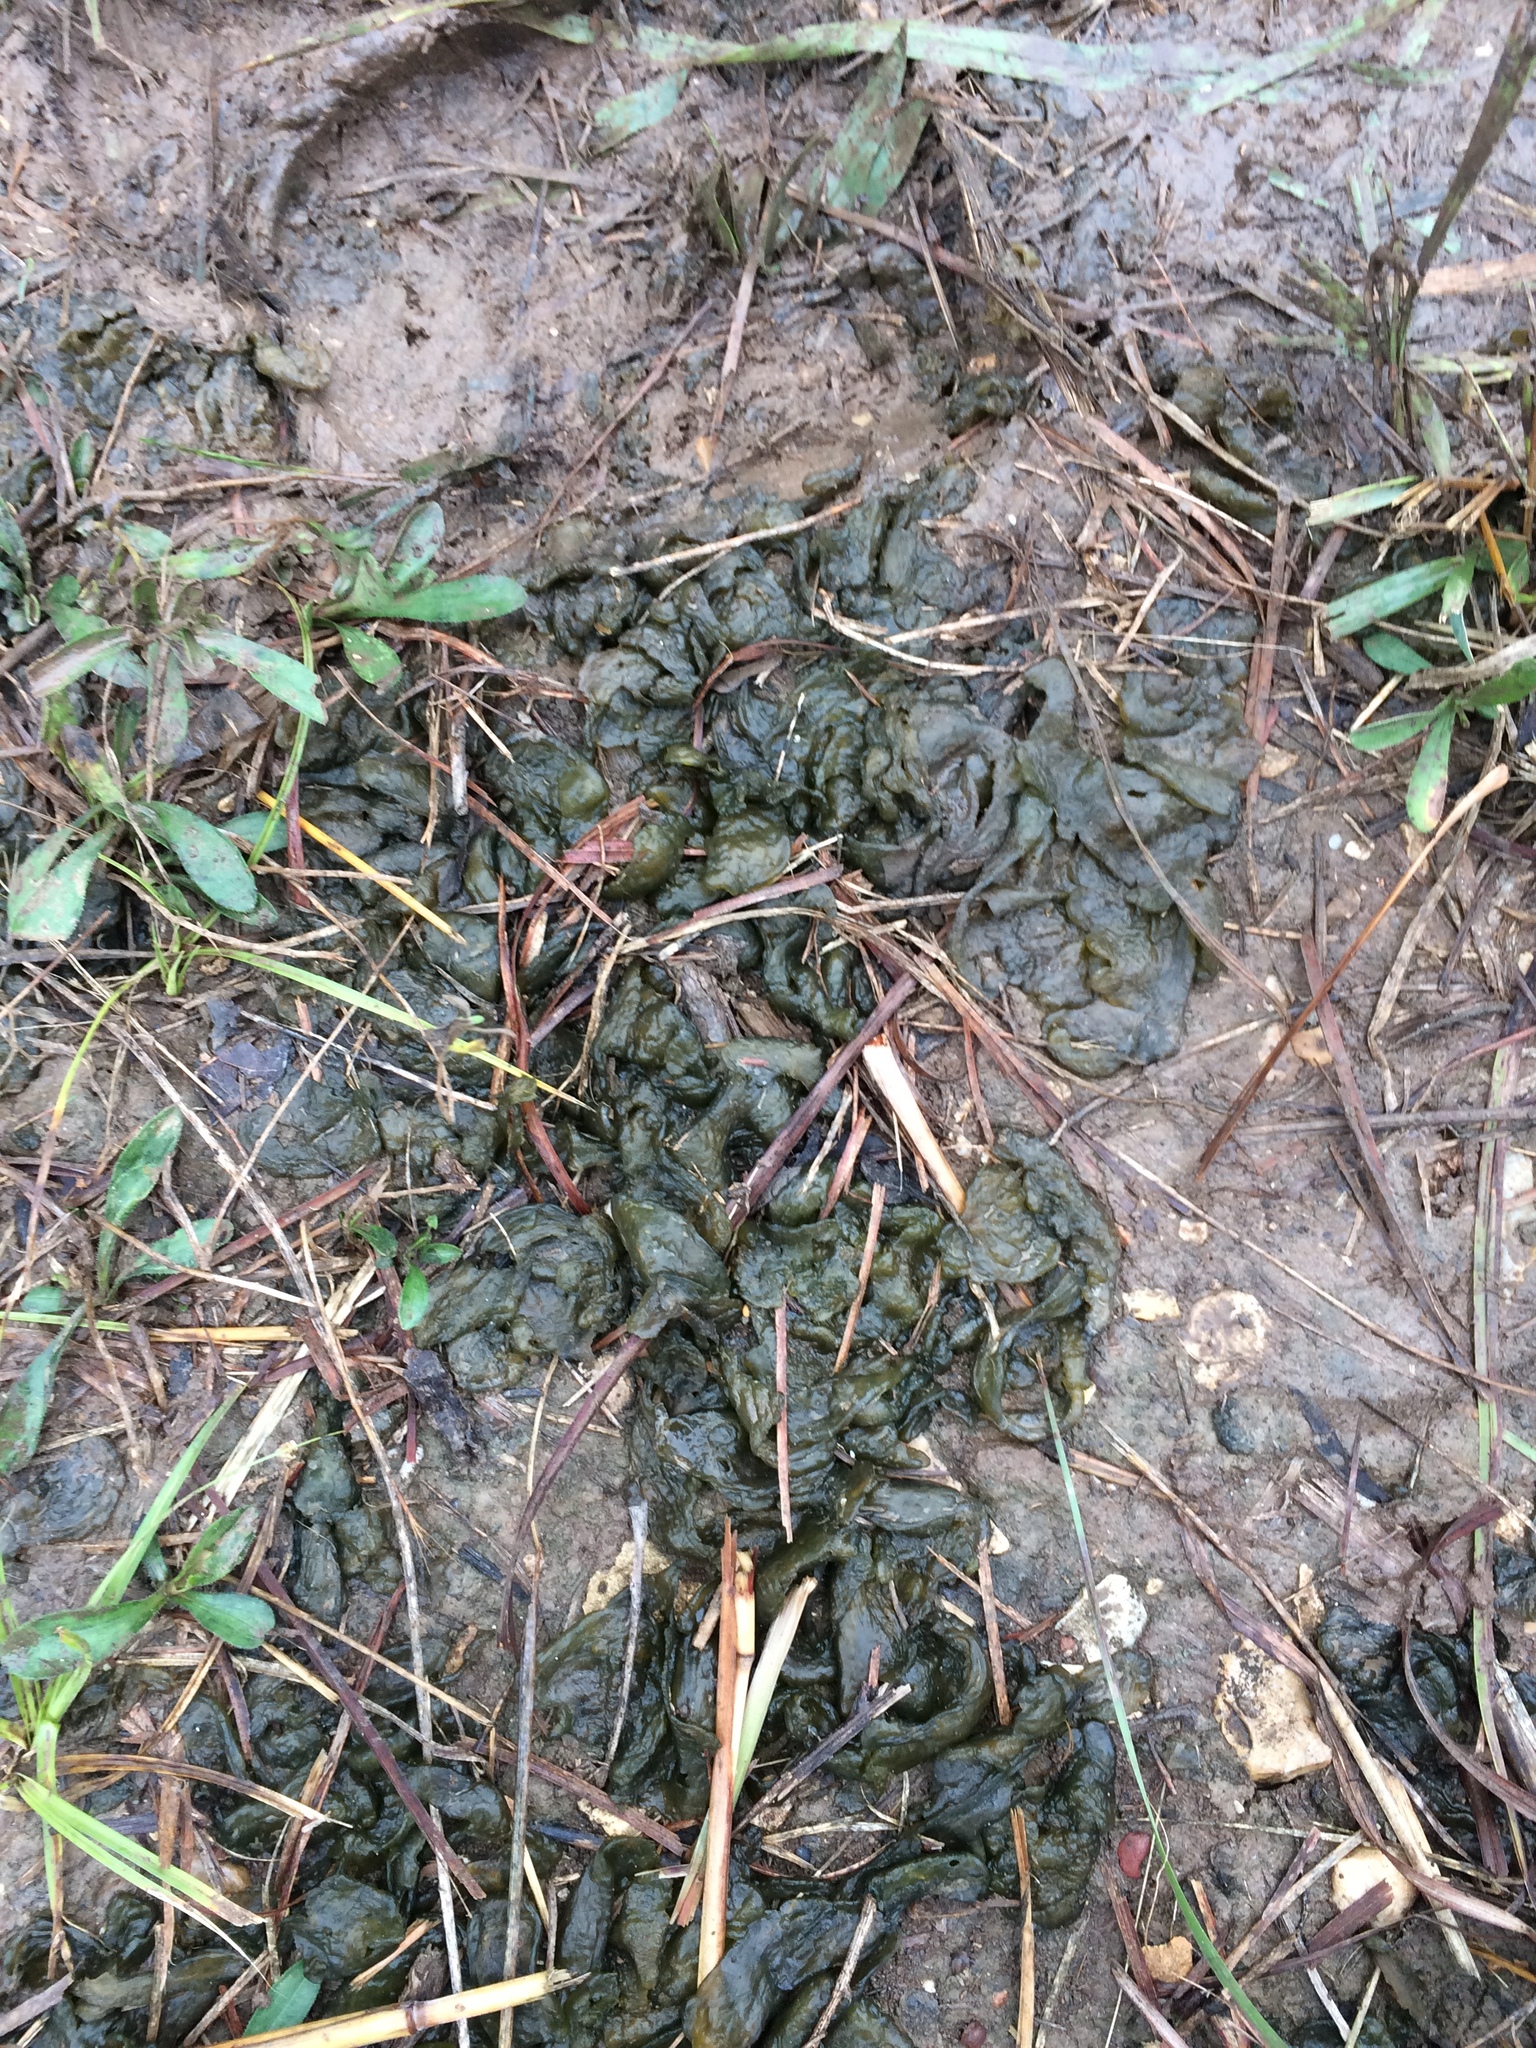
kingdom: Bacteria
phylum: Cyanobacteria
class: Cyanobacteriia
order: Cyanobacteriales
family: Nostocaceae
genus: Nostoc
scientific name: Nostoc commune
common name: Star jelly
